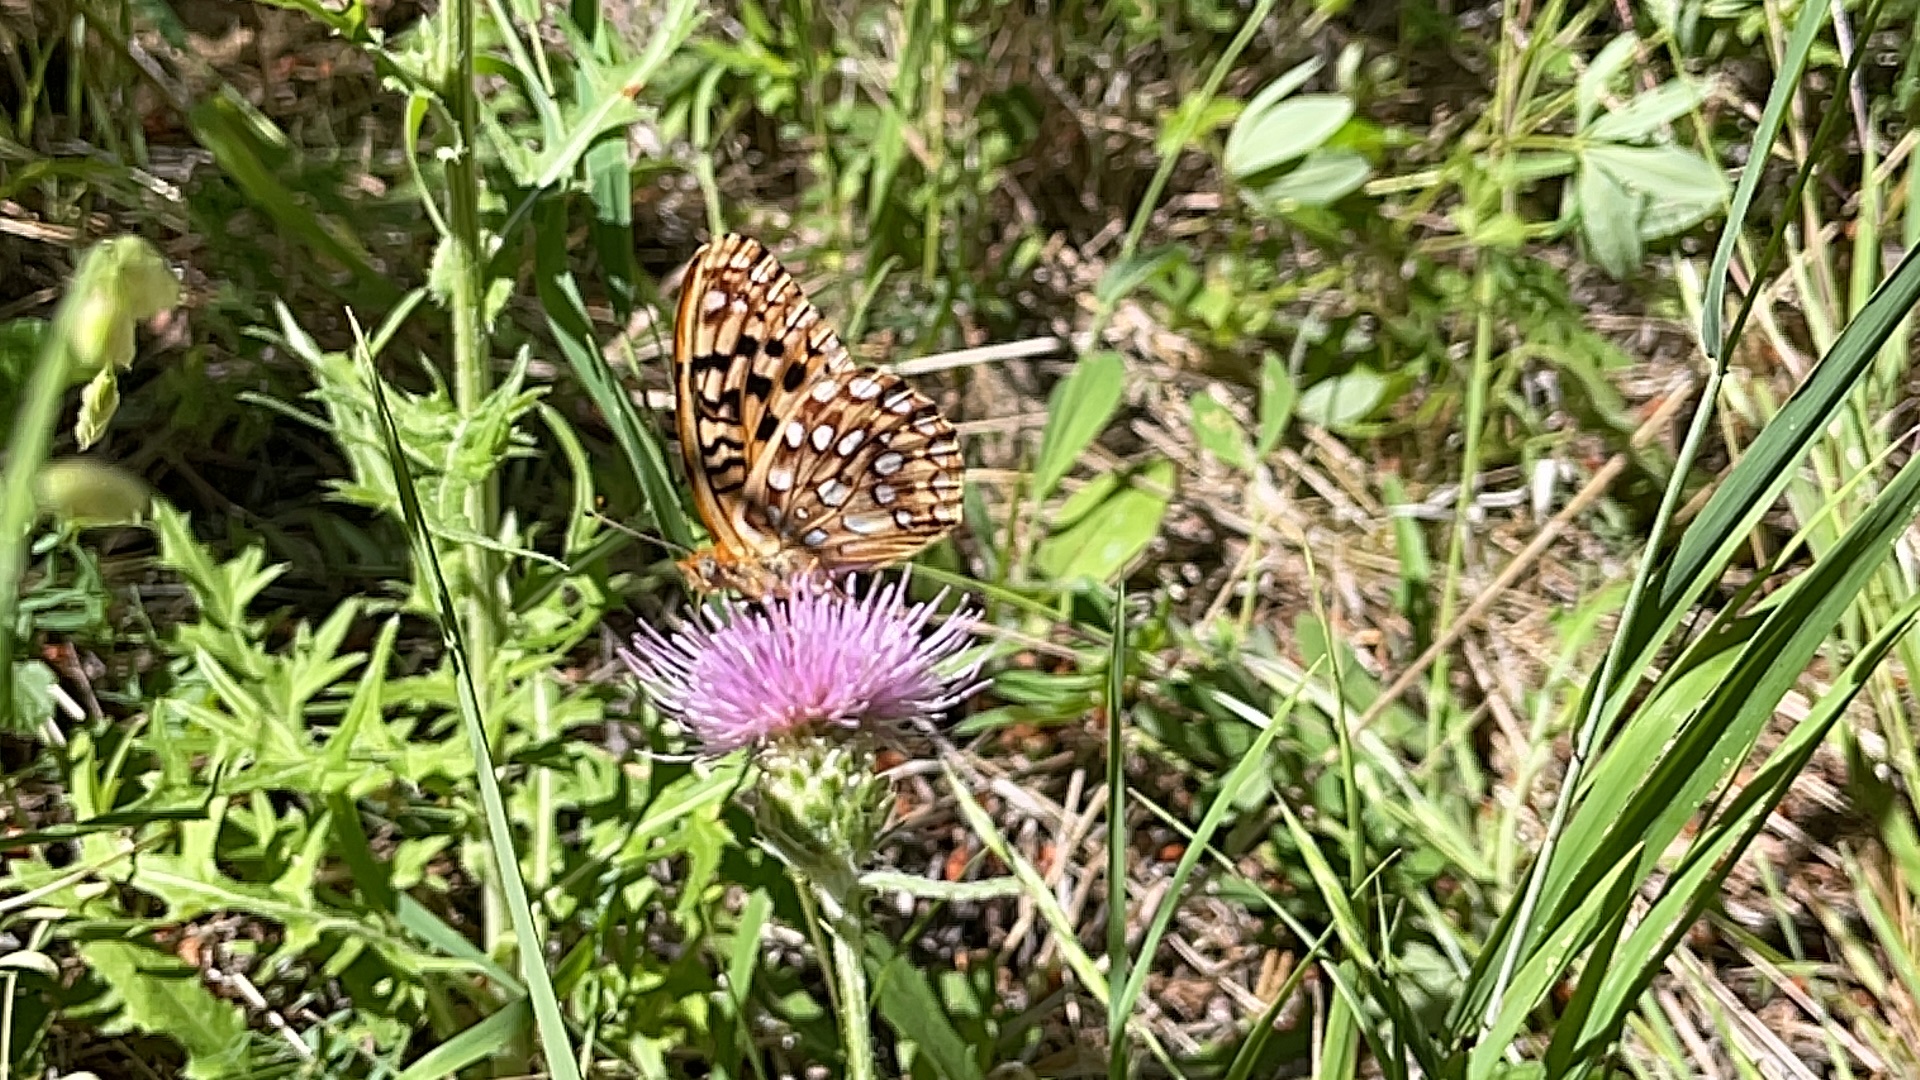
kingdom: Animalia
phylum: Arthropoda
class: Insecta
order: Lepidoptera
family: Nymphalidae
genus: Speyeria
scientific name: Speyeria zerene
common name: Zerene fritillary
